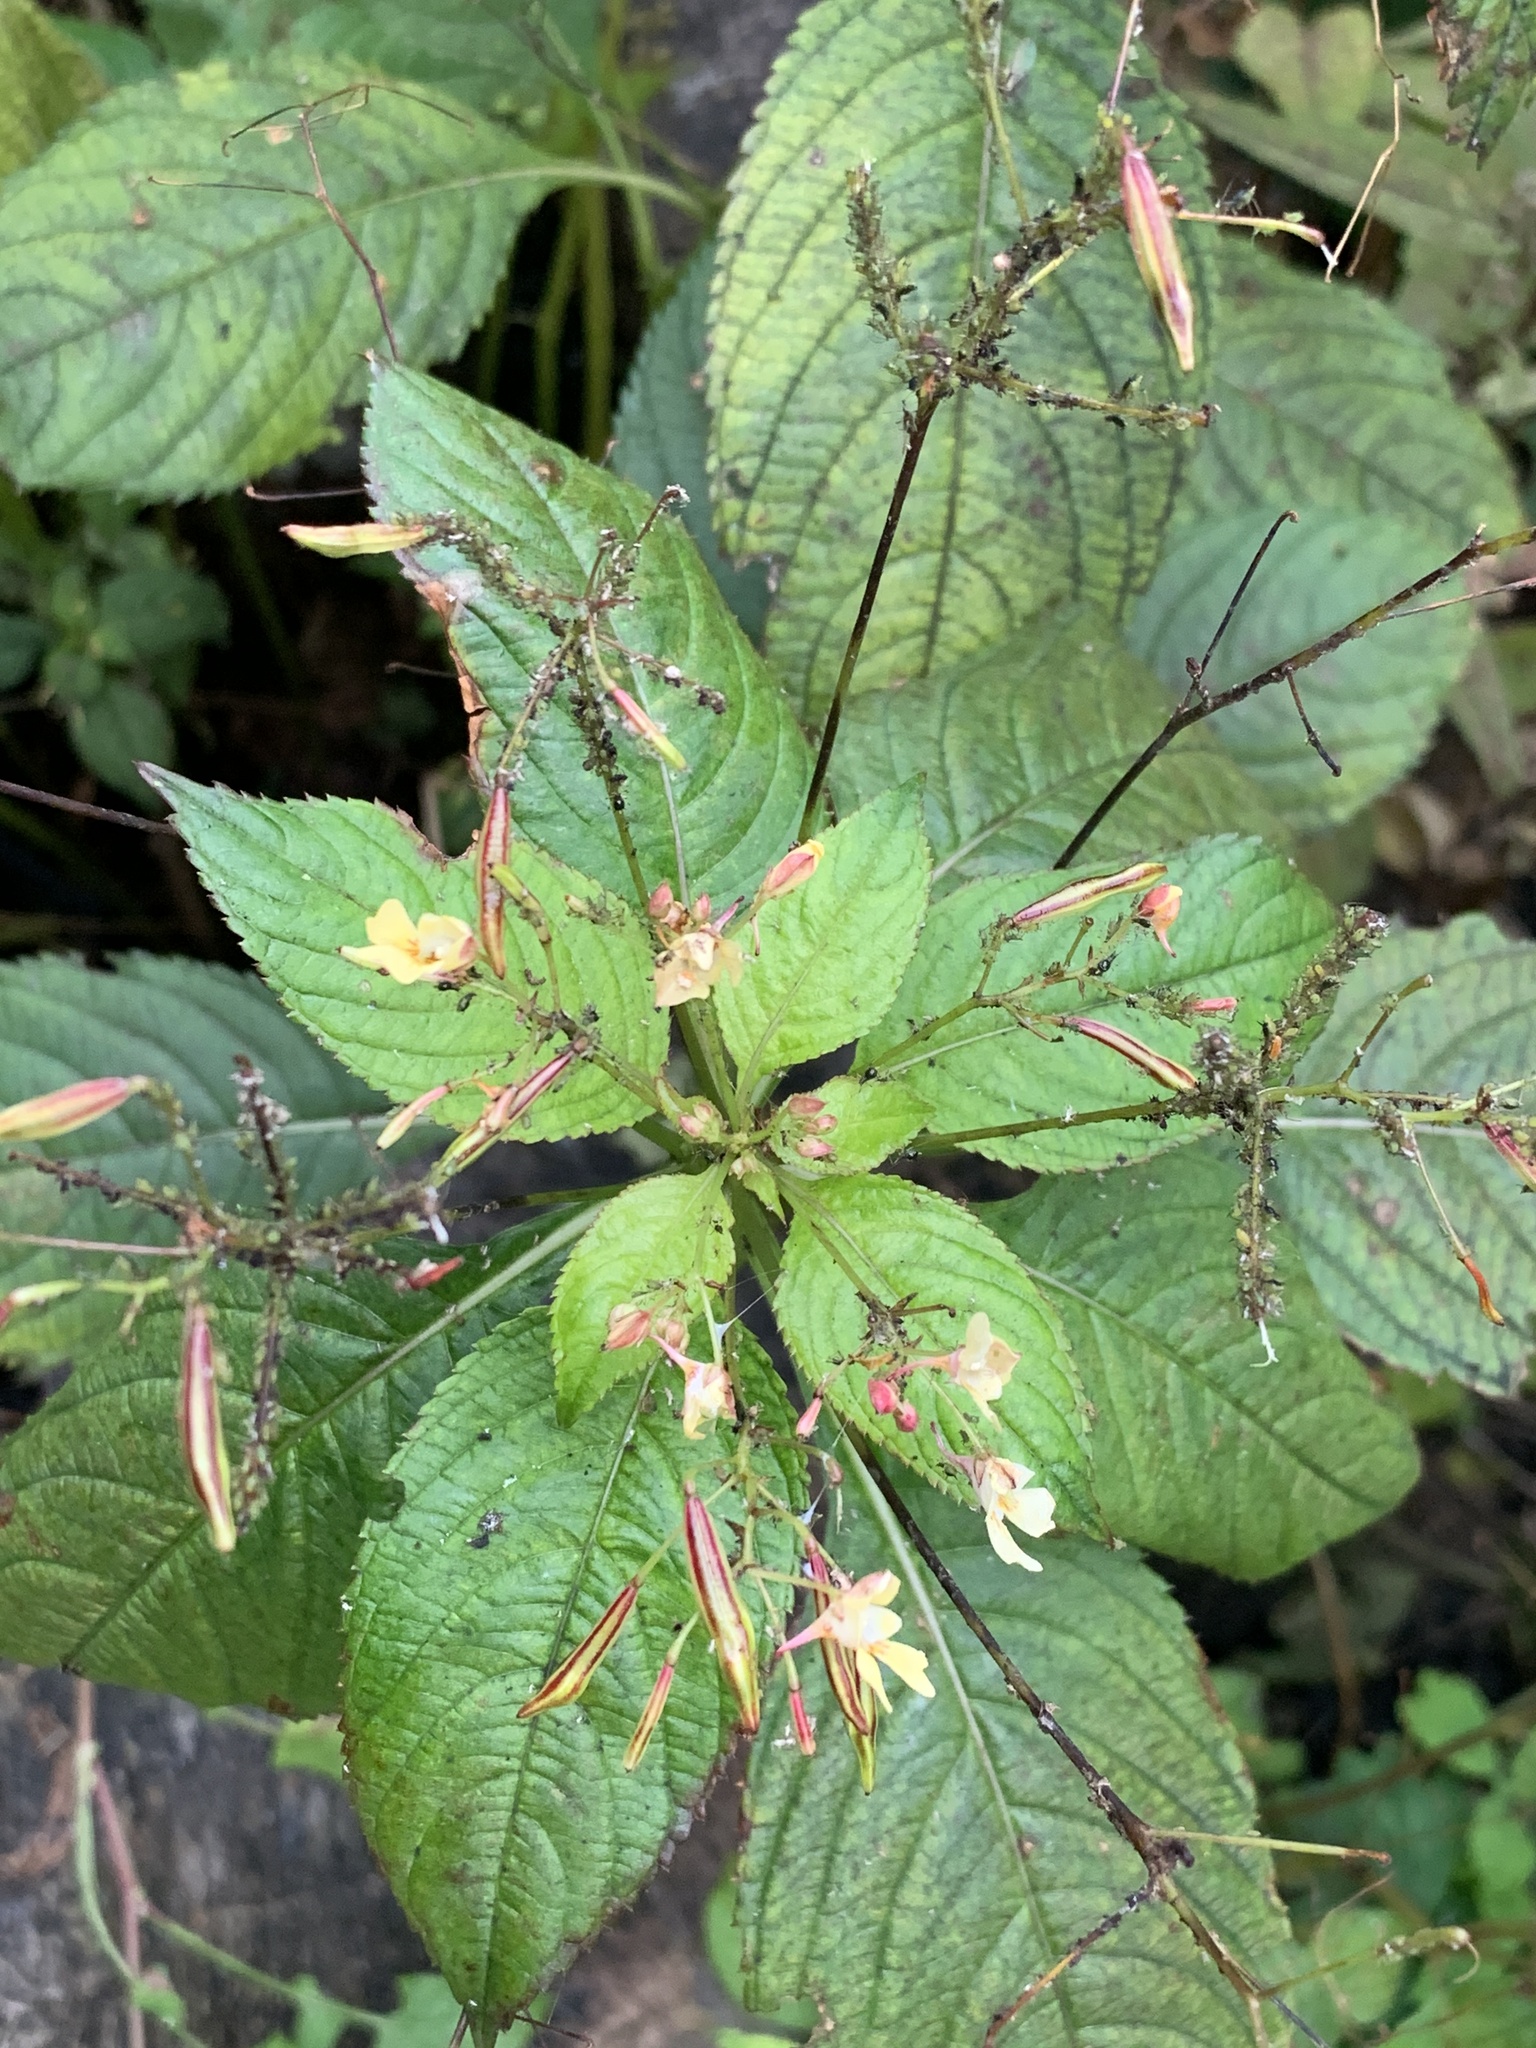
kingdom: Plantae
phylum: Tracheophyta
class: Magnoliopsida
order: Ericales
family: Balsaminaceae
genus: Impatiens
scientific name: Impatiens parviflora
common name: Small balsam
